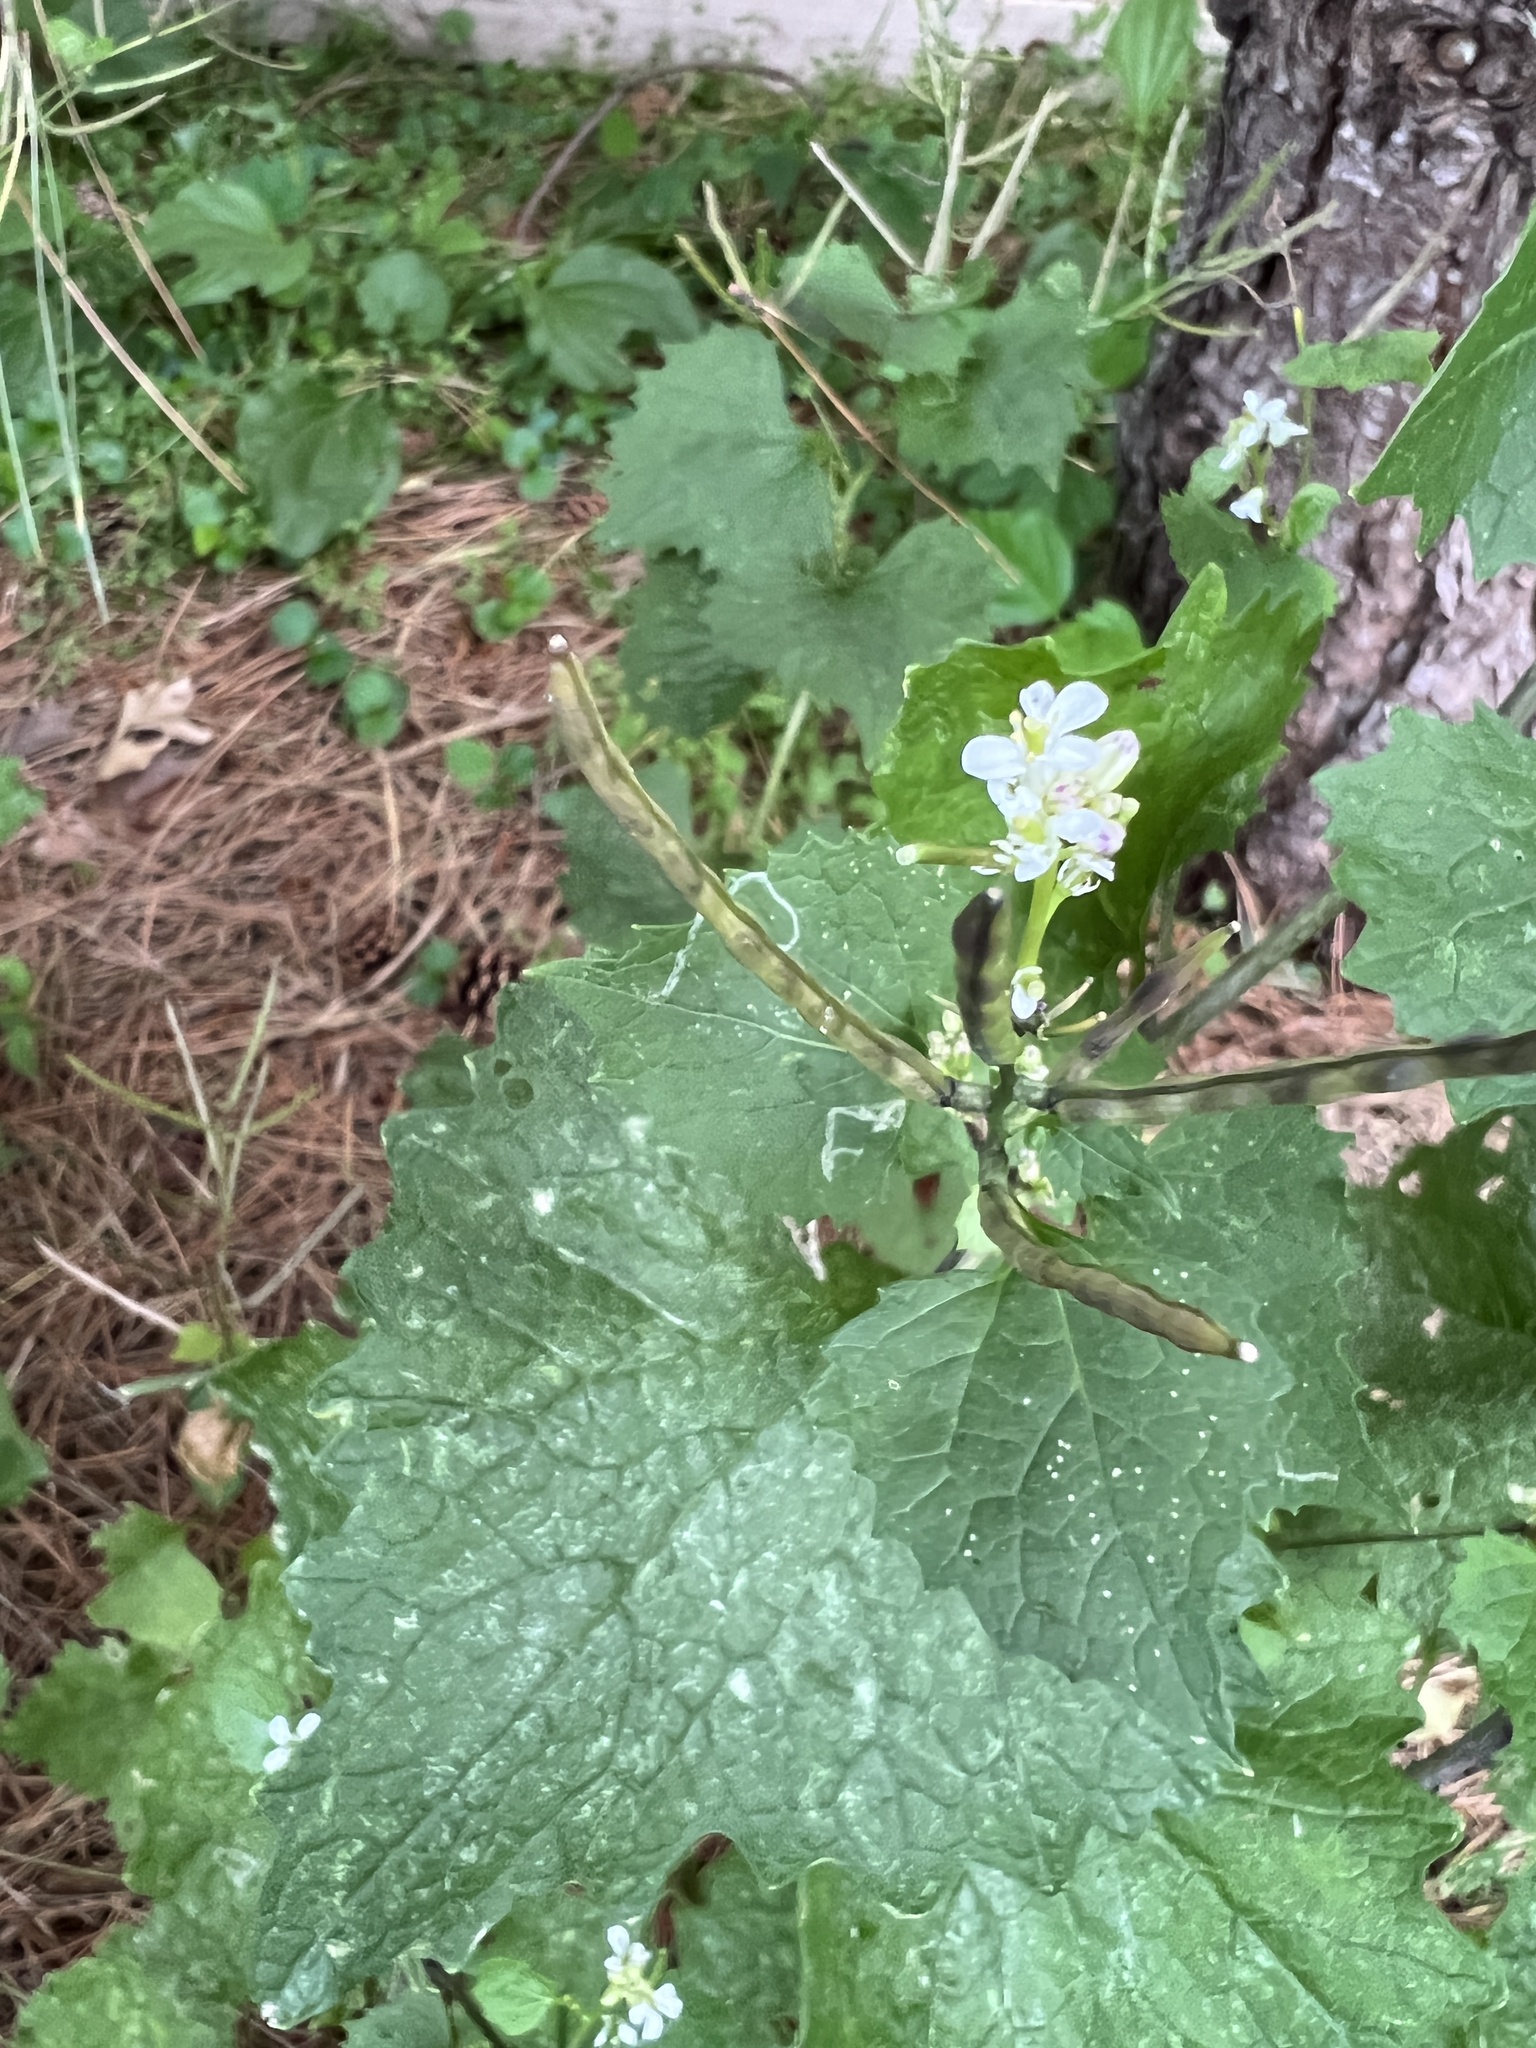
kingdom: Plantae
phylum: Tracheophyta
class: Magnoliopsida
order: Brassicales
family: Brassicaceae
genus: Alliaria
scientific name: Alliaria petiolata
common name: Garlic mustard
